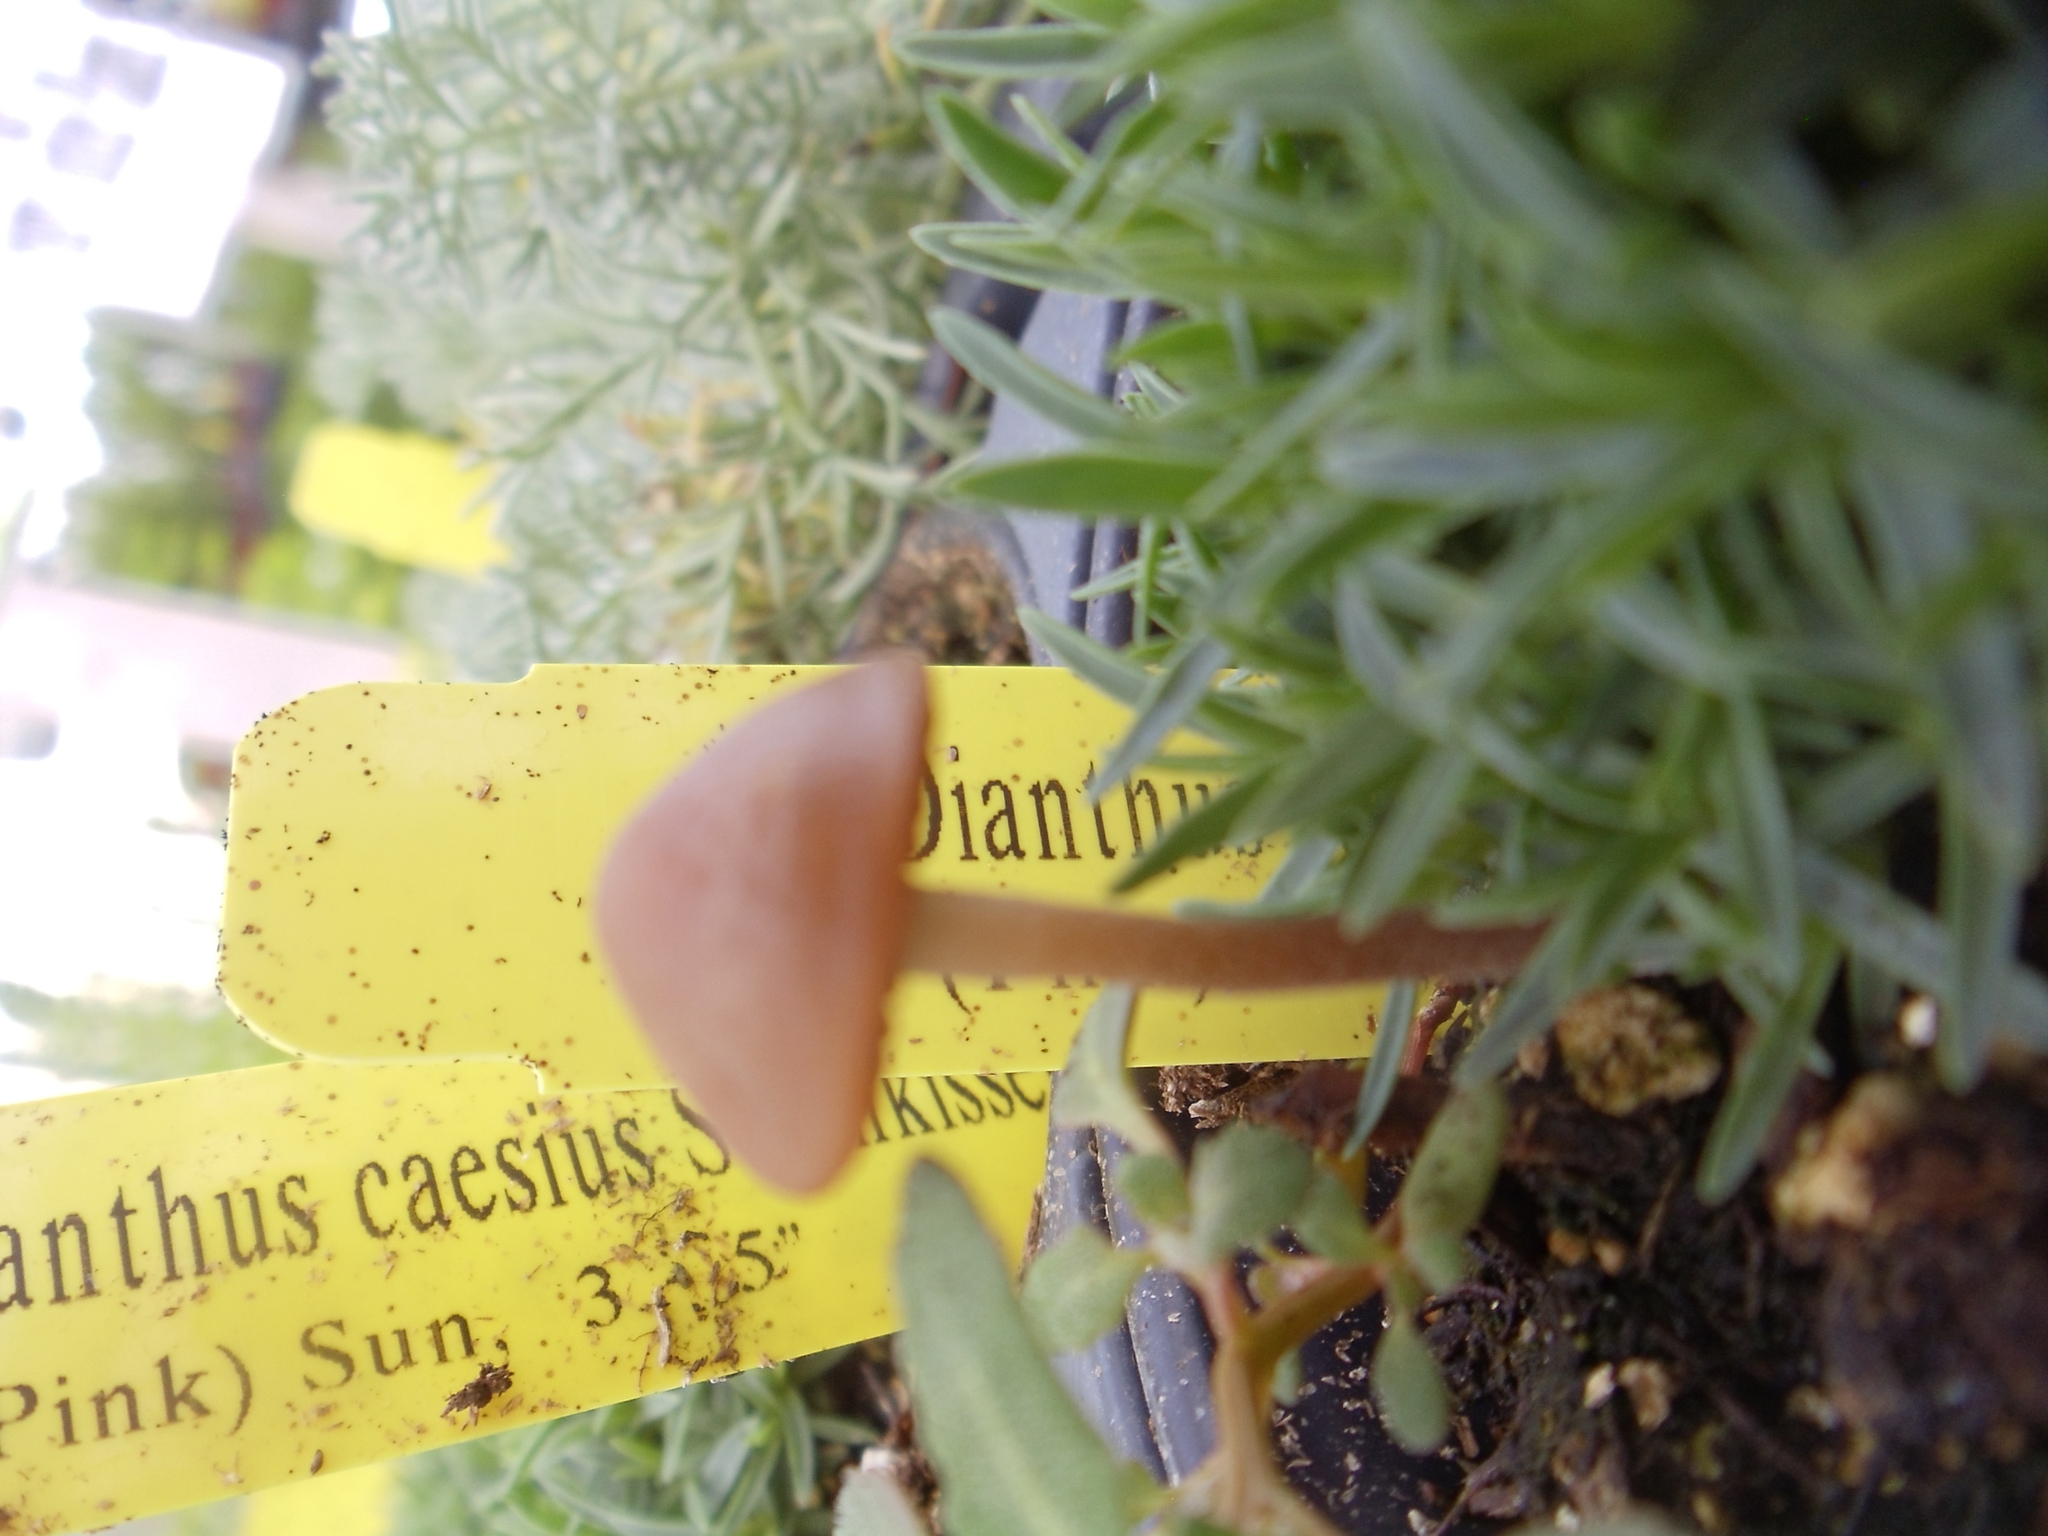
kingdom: Fungi
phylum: Basidiomycota
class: Agaricomycetes
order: Agaricales
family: Bolbitiaceae
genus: Panaeolina
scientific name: Panaeolina foenisecii
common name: Brown hay cap
